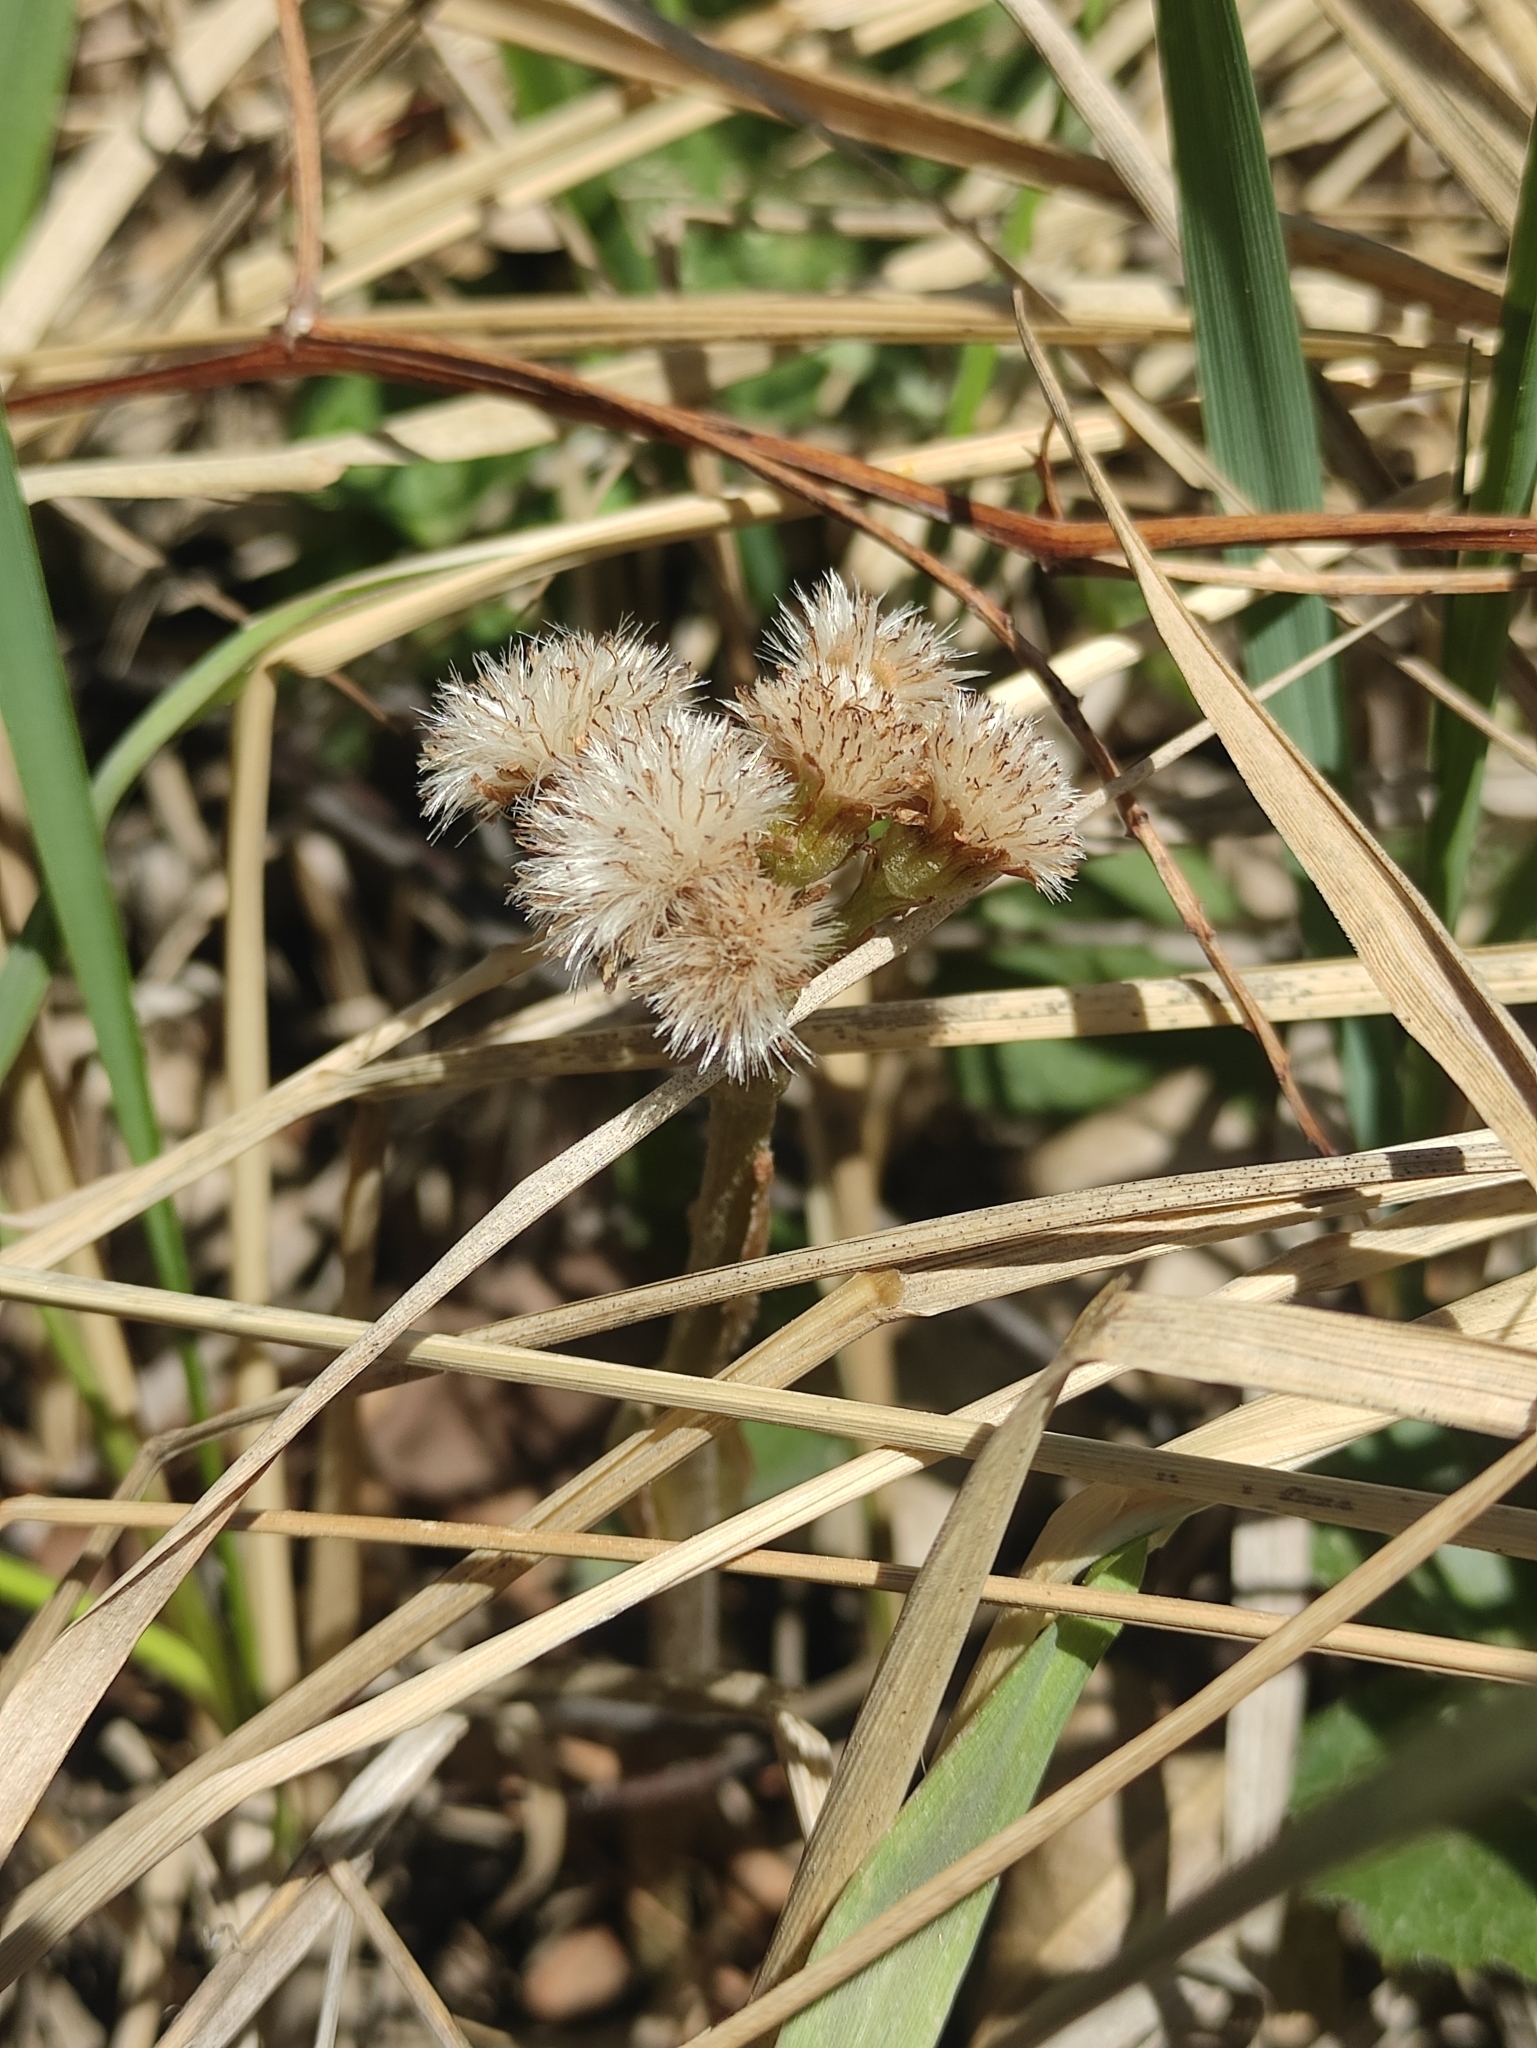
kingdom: Plantae
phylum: Tracheophyta
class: Magnoliopsida
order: Asterales
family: Asteraceae
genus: Tussilago
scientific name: Tussilago farfara
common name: Coltsfoot
